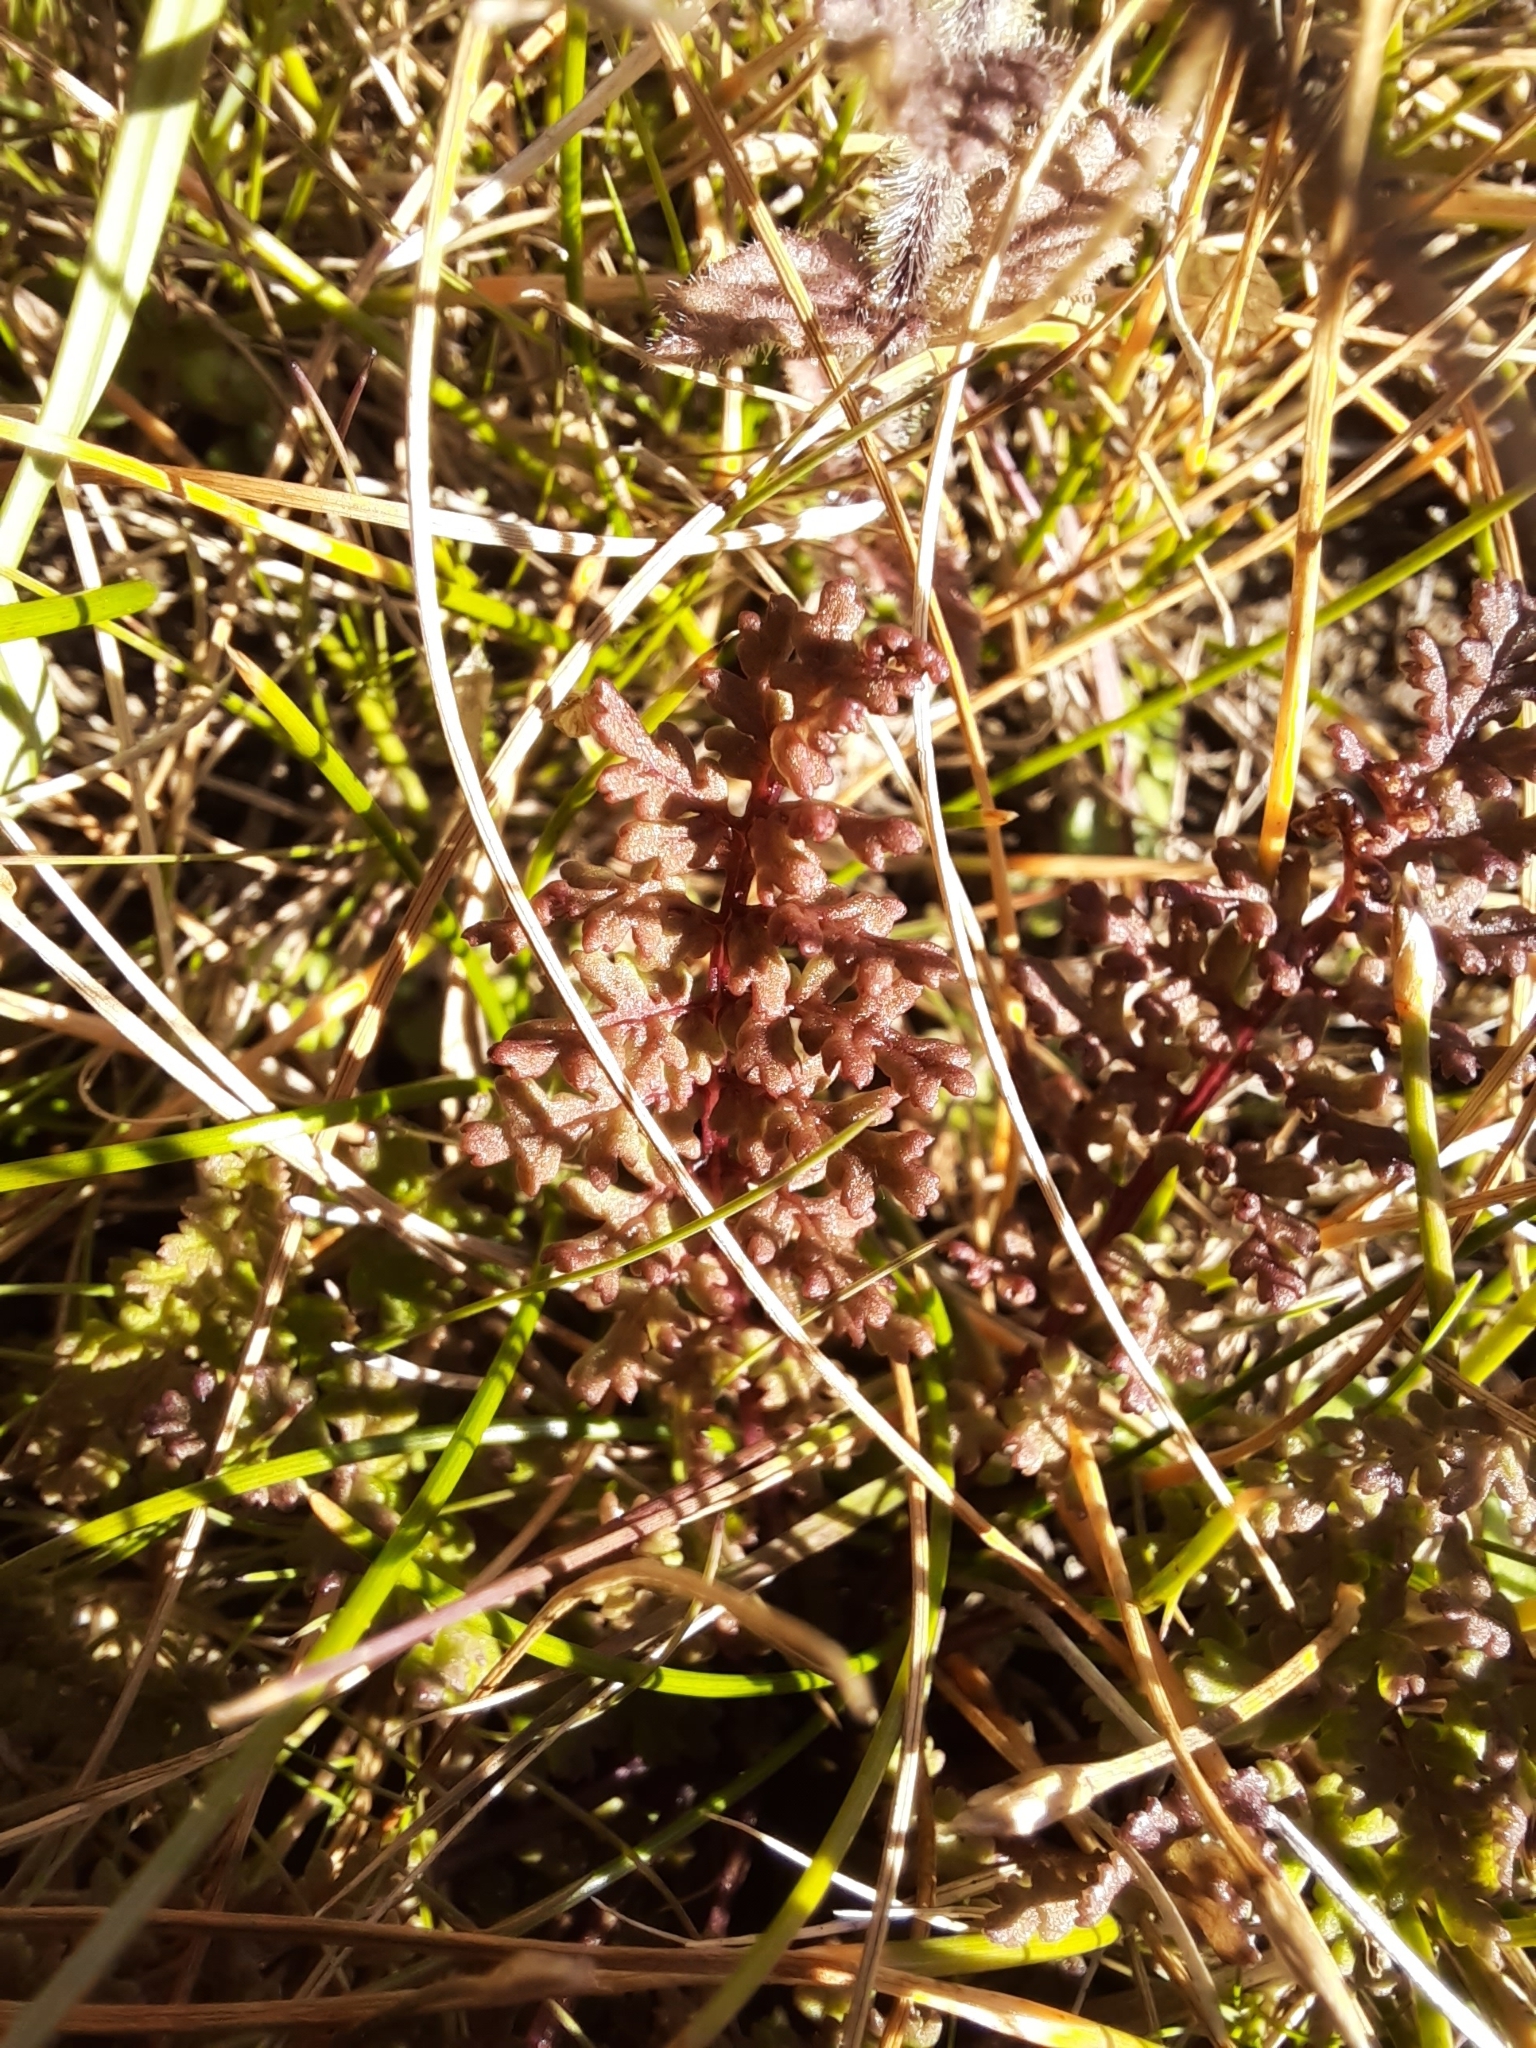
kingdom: Plantae
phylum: Tracheophyta
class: Magnoliopsida
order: Lamiales
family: Orobanchaceae
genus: Pedicularis
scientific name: Pedicularis sylvatica
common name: Lousewort
